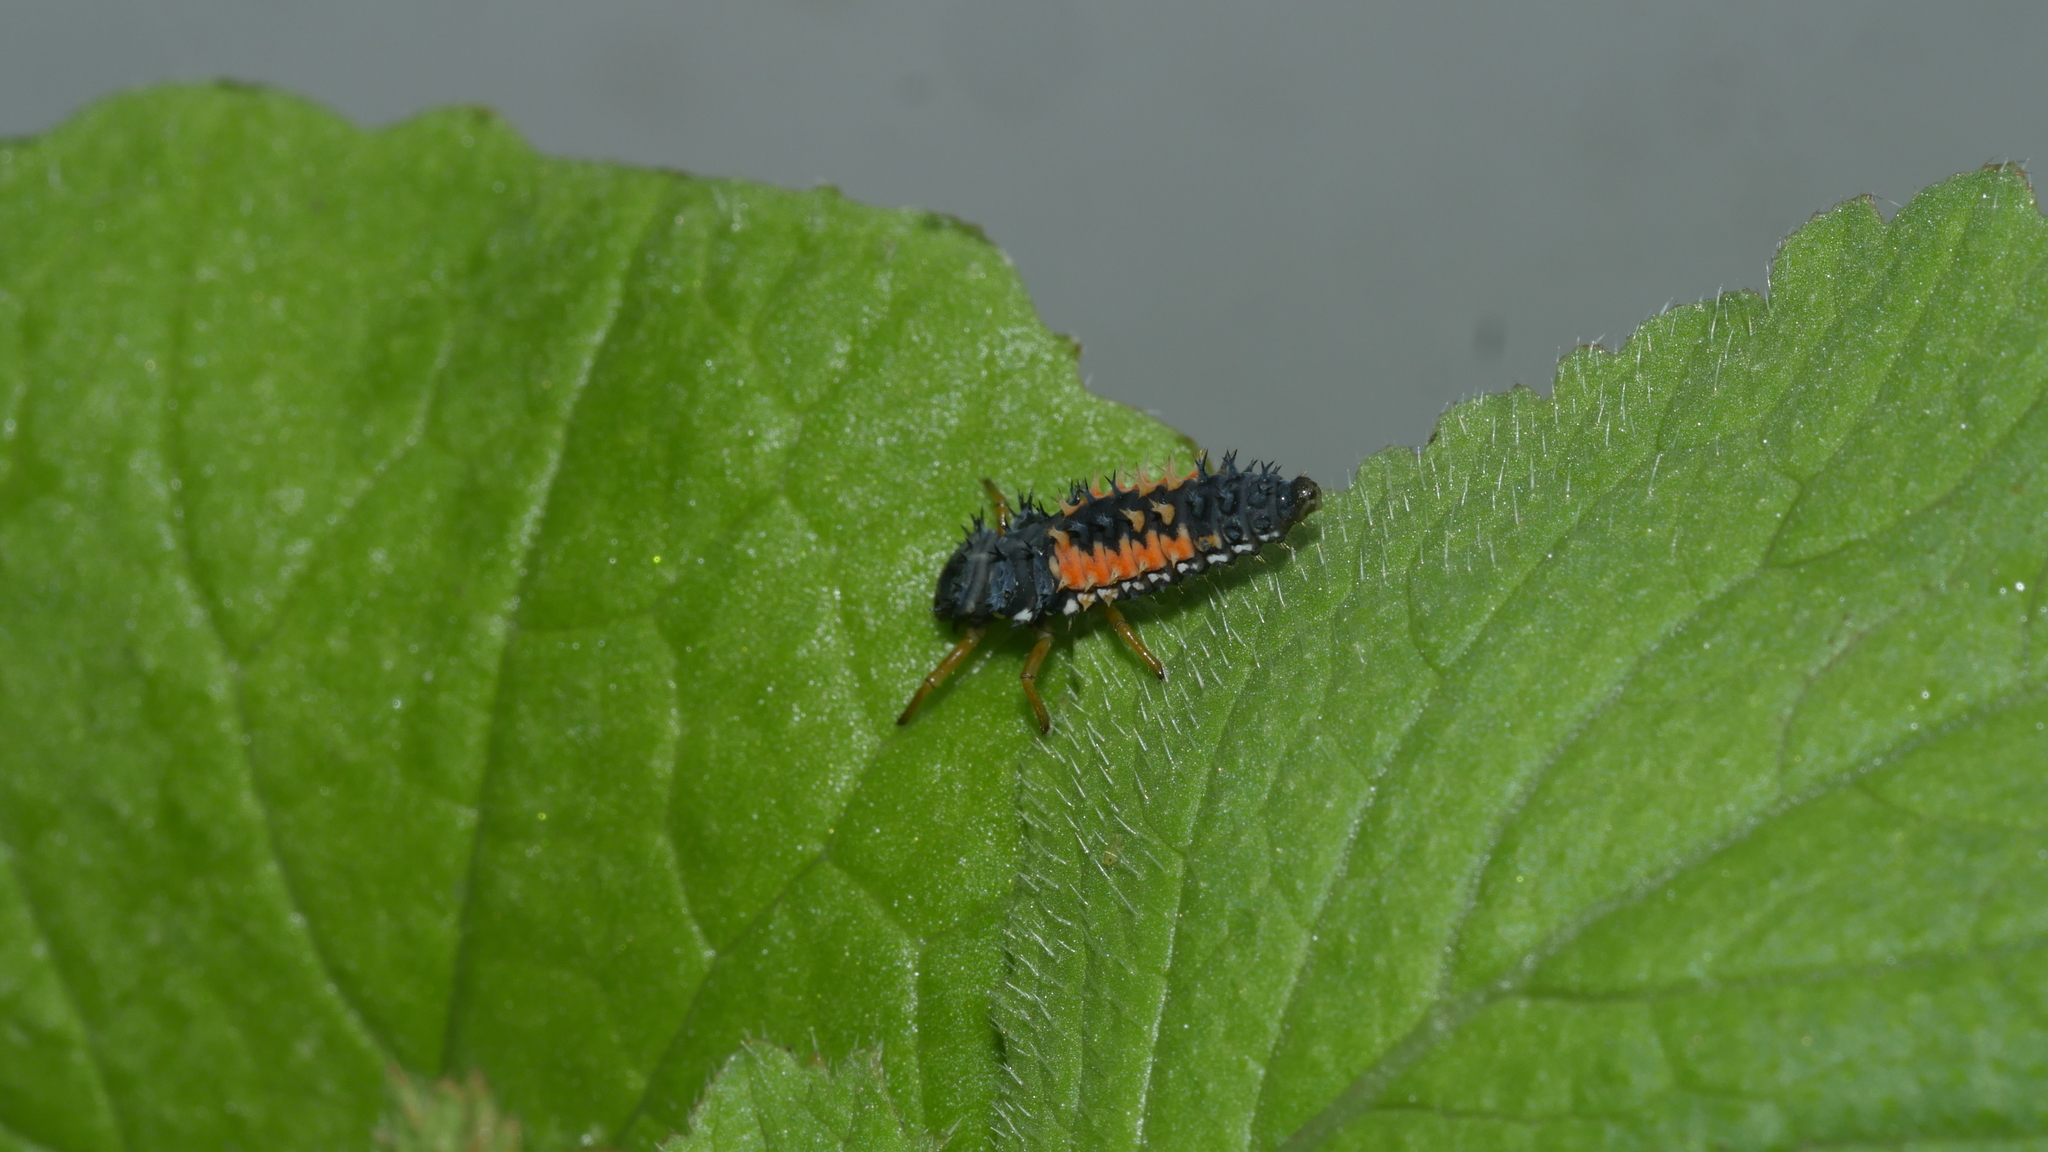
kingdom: Animalia
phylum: Arthropoda
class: Insecta
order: Coleoptera
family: Coccinellidae
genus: Harmonia
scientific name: Harmonia axyridis
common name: Harlequin ladybird
